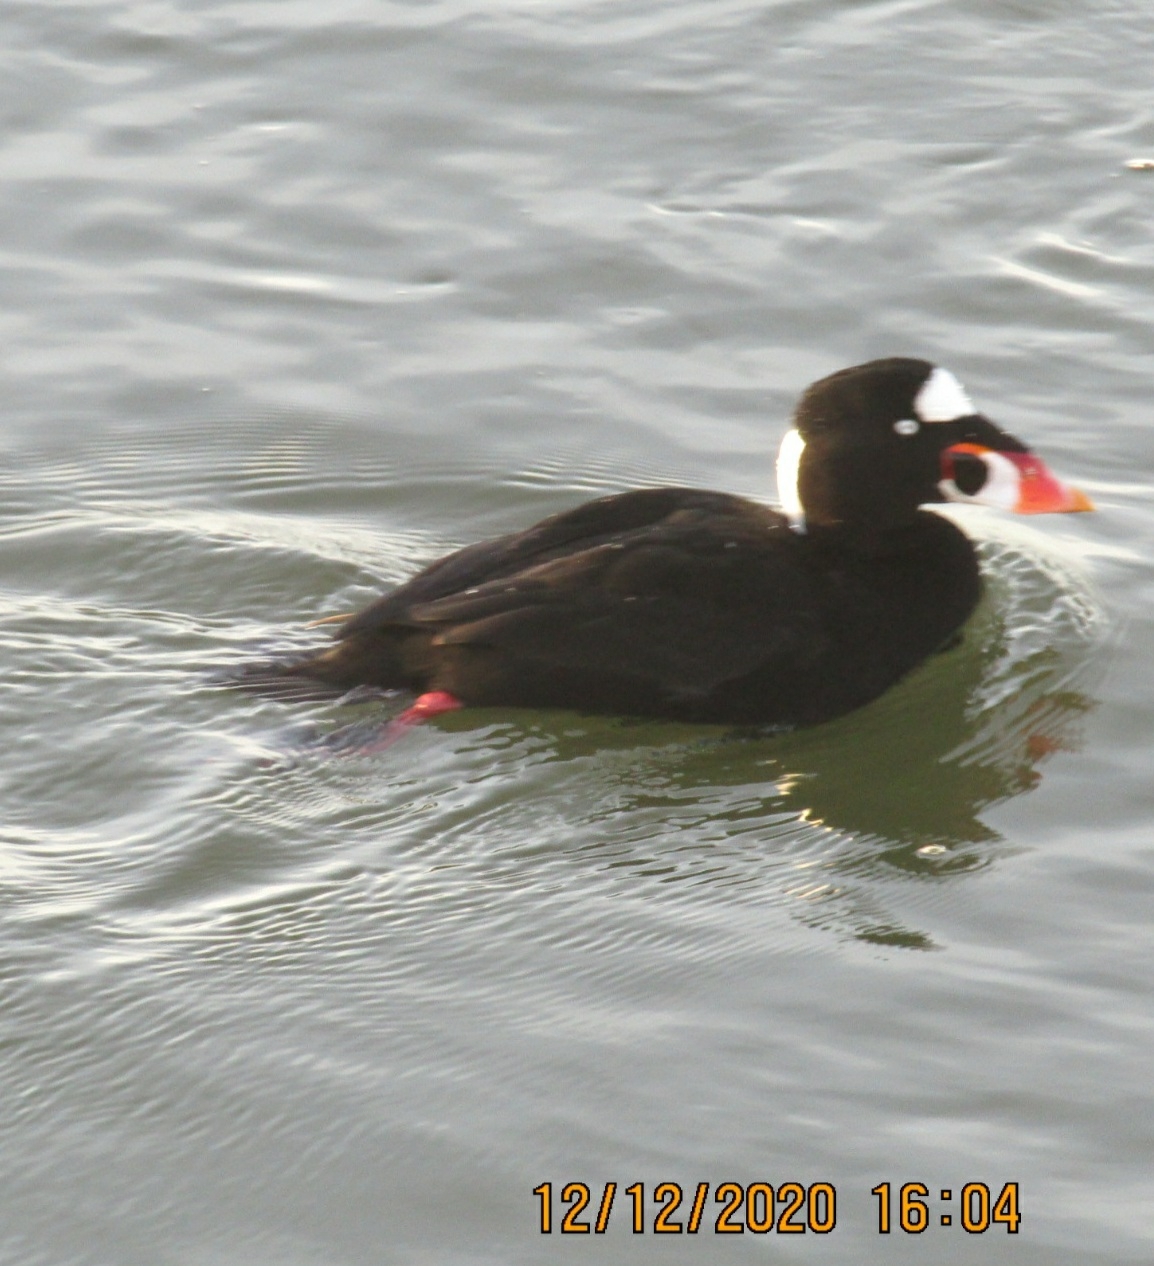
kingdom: Animalia
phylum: Chordata
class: Aves
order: Anseriformes
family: Anatidae
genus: Melanitta
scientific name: Melanitta perspicillata
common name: Surf scoter
